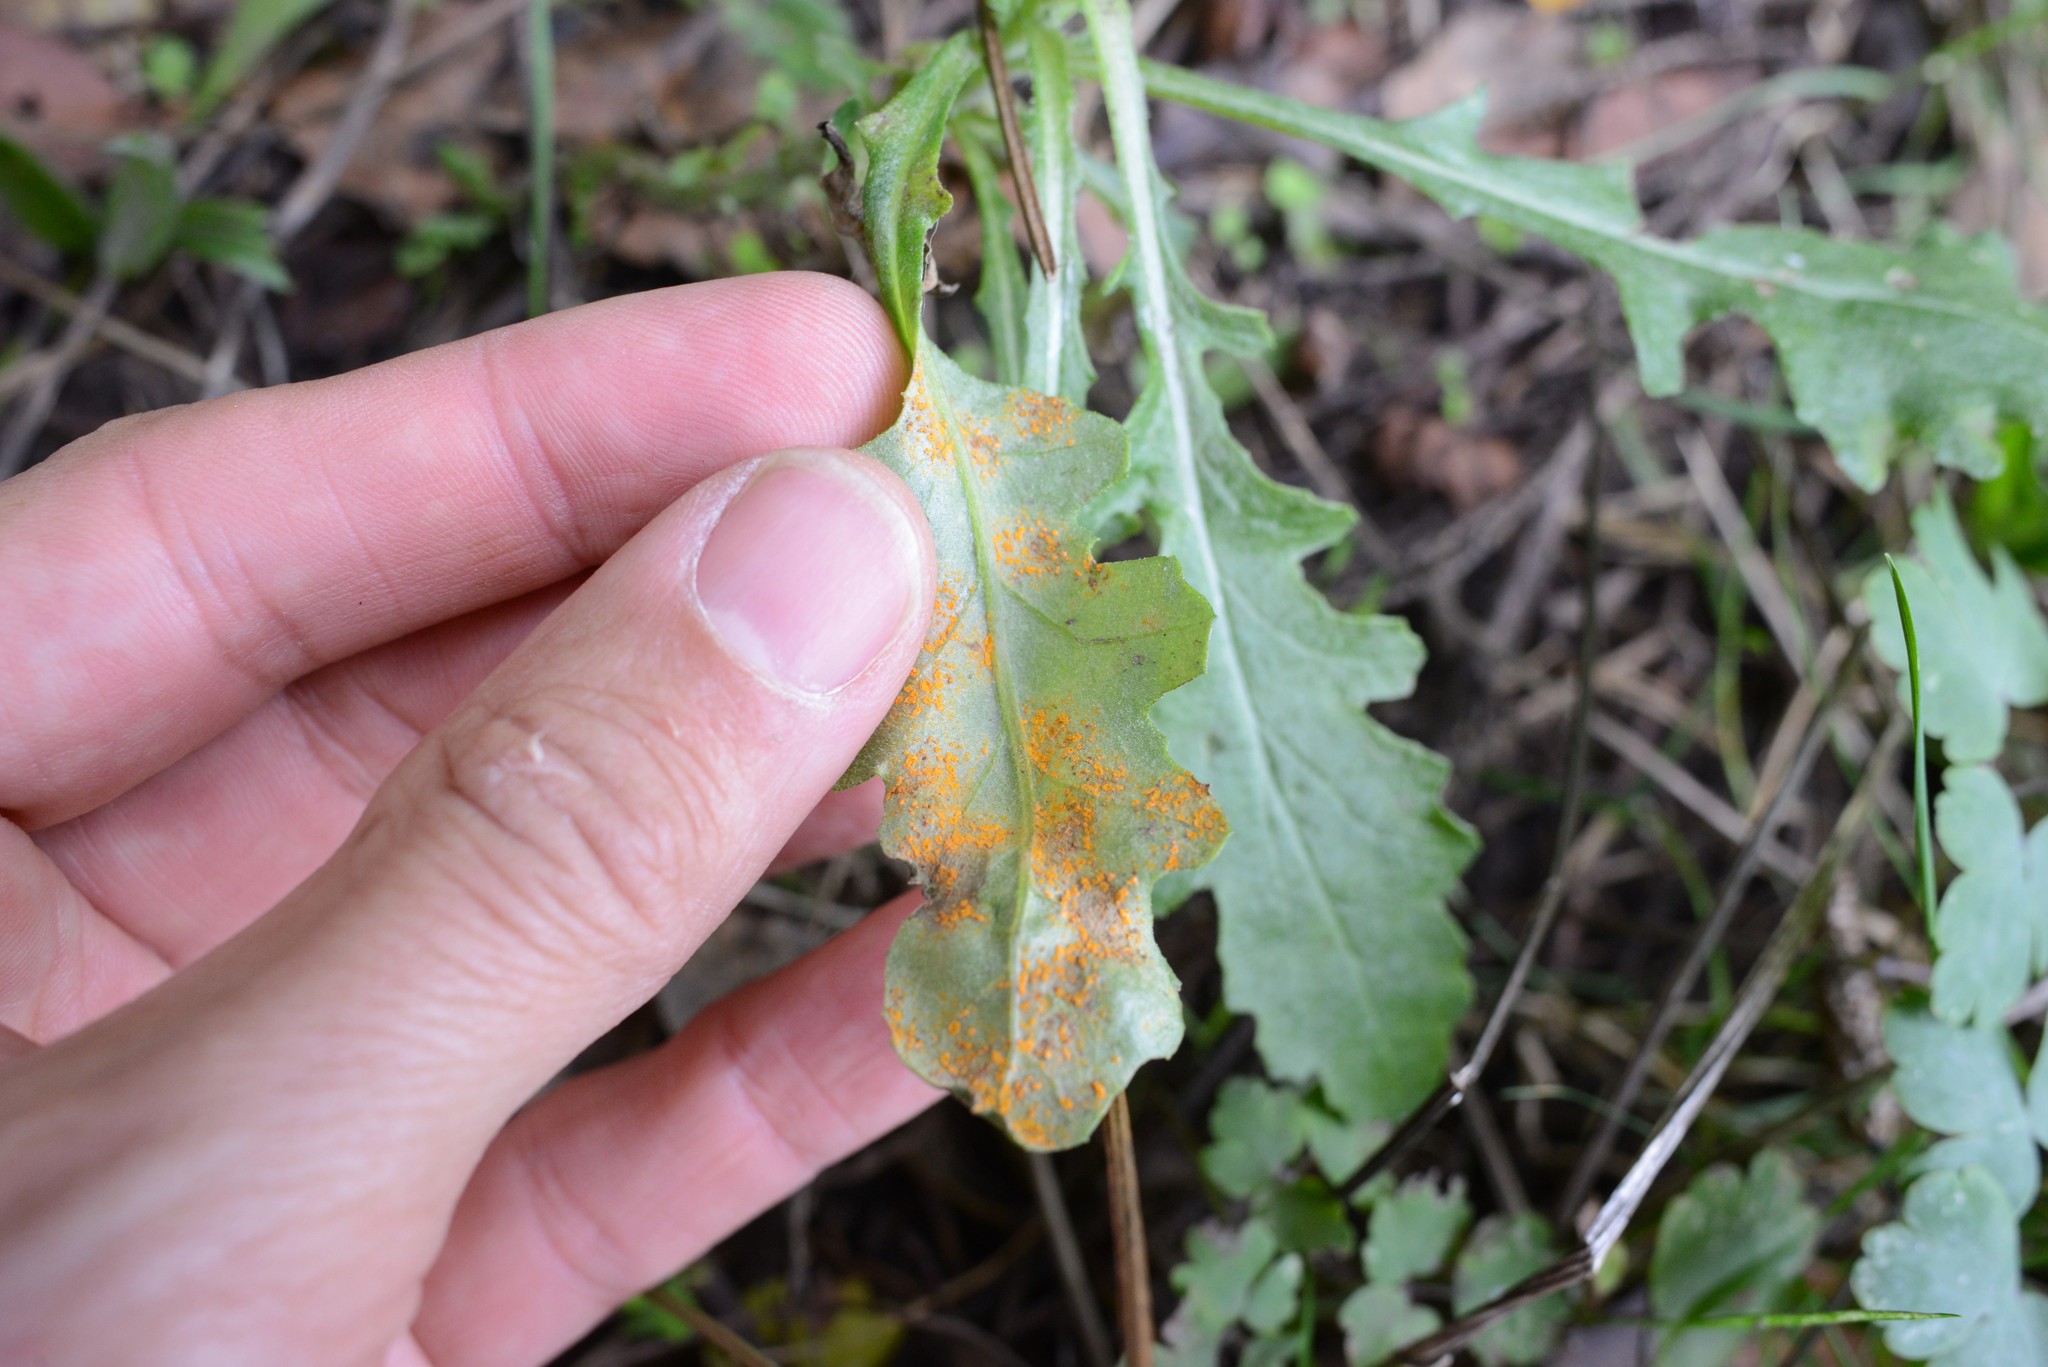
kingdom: Fungi
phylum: Basidiomycota
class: Pucciniomycetes
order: Pucciniales
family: Coleosporiaceae
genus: Coleosporium
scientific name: Coleosporium tussilaginis
